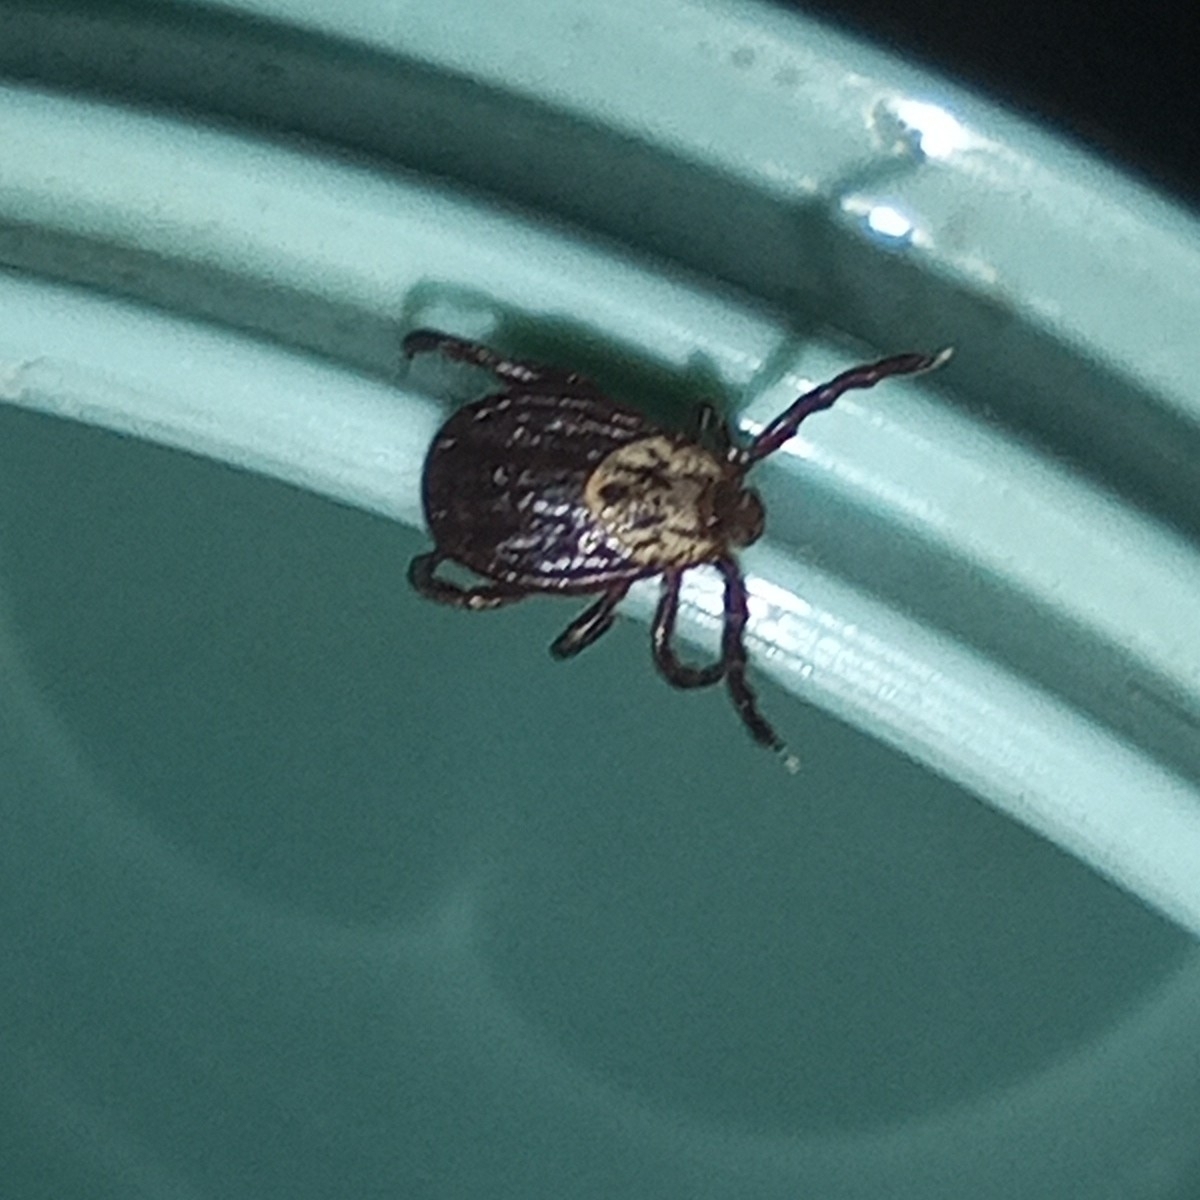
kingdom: Animalia
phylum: Arthropoda
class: Arachnida
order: Ixodida
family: Ixodidae
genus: Dermacentor
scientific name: Dermacentor reticulatus
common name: Ornate cow tick
